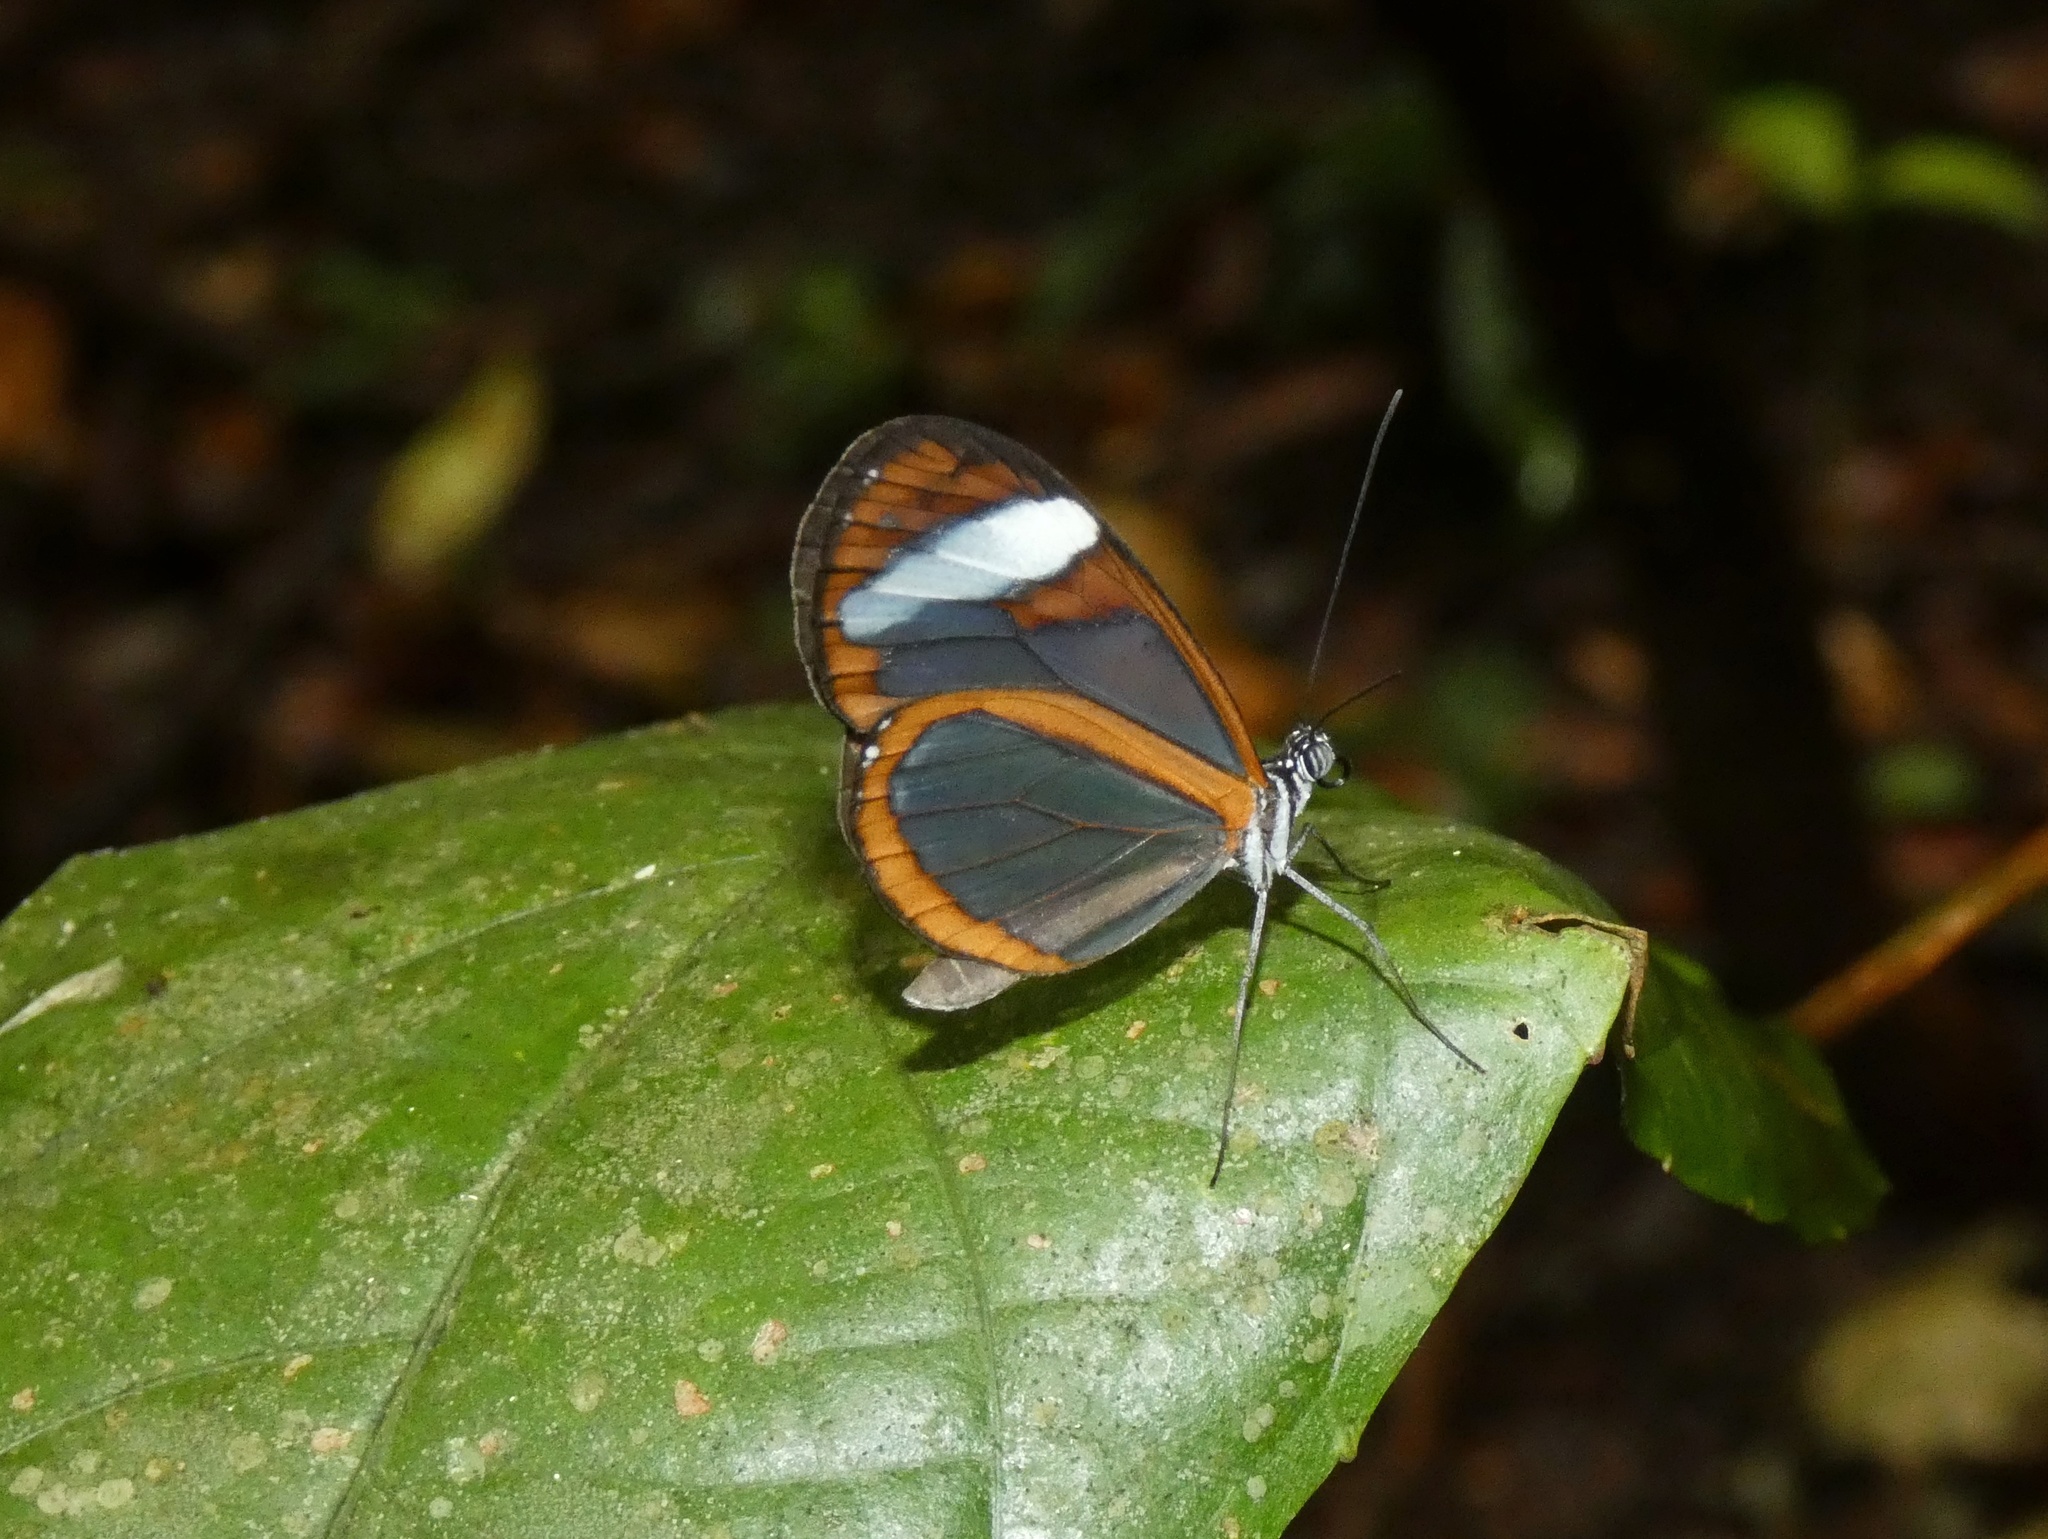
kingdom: Animalia
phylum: Arthropoda
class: Insecta
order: Lepidoptera
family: Nymphalidae
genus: Oleria
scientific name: Oleria paula
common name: Paula's clearwing
